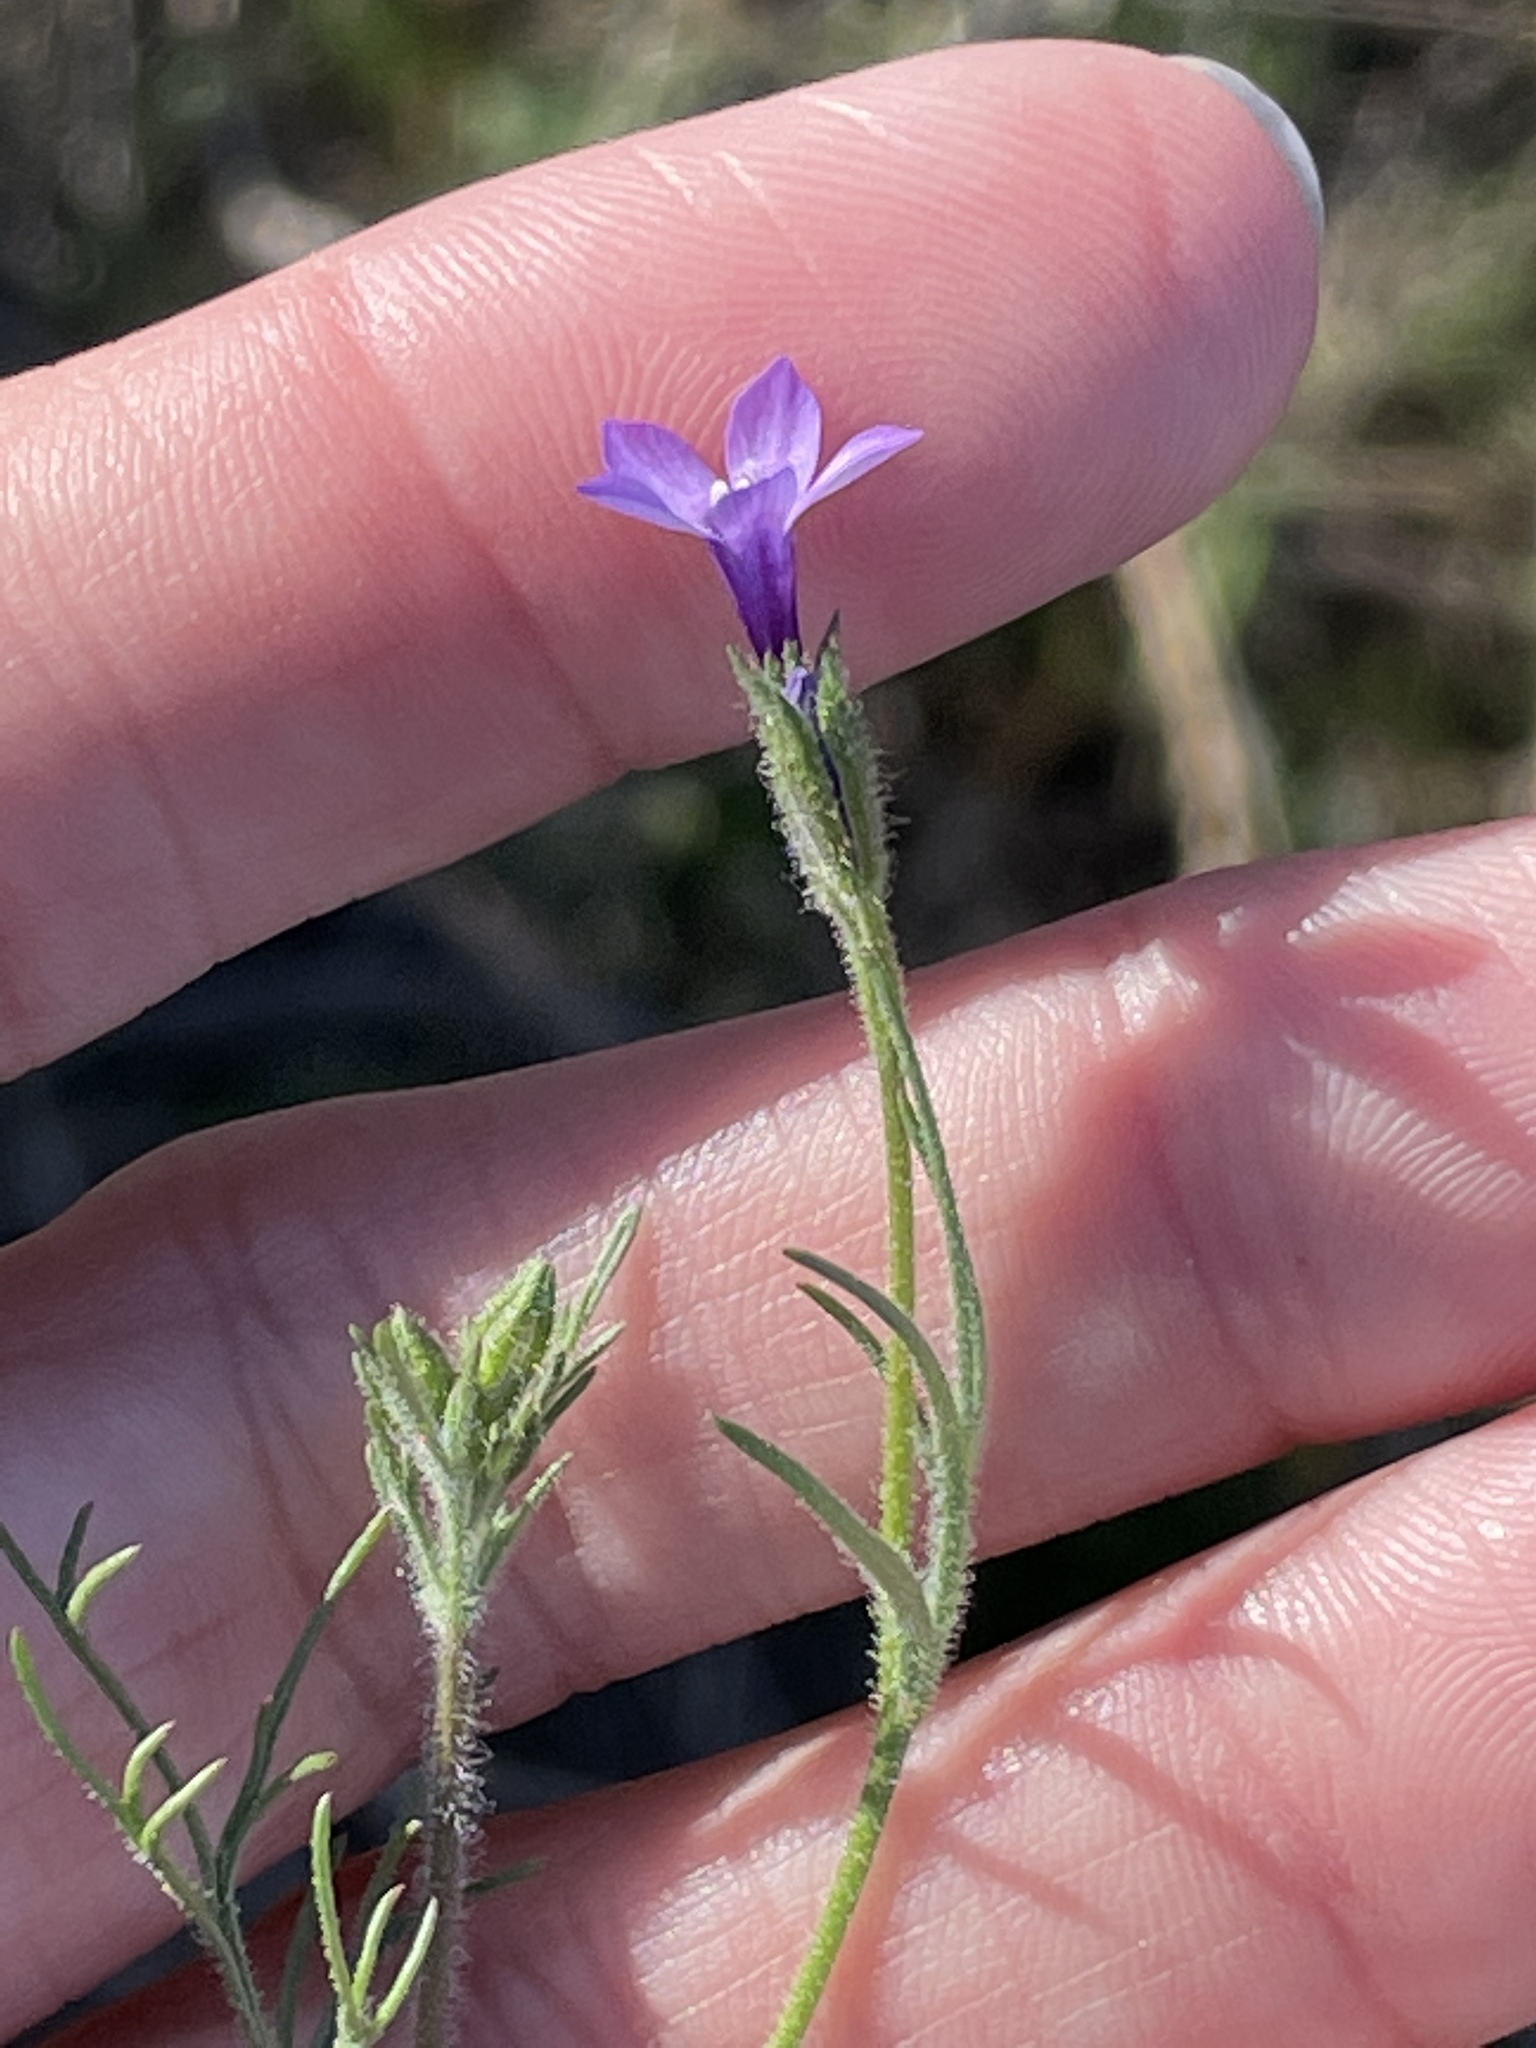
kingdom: Plantae
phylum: Tracheophyta
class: Magnoliopsida
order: Ericales
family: Polemoniaceae
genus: Gilia
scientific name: Gilia nevinii
